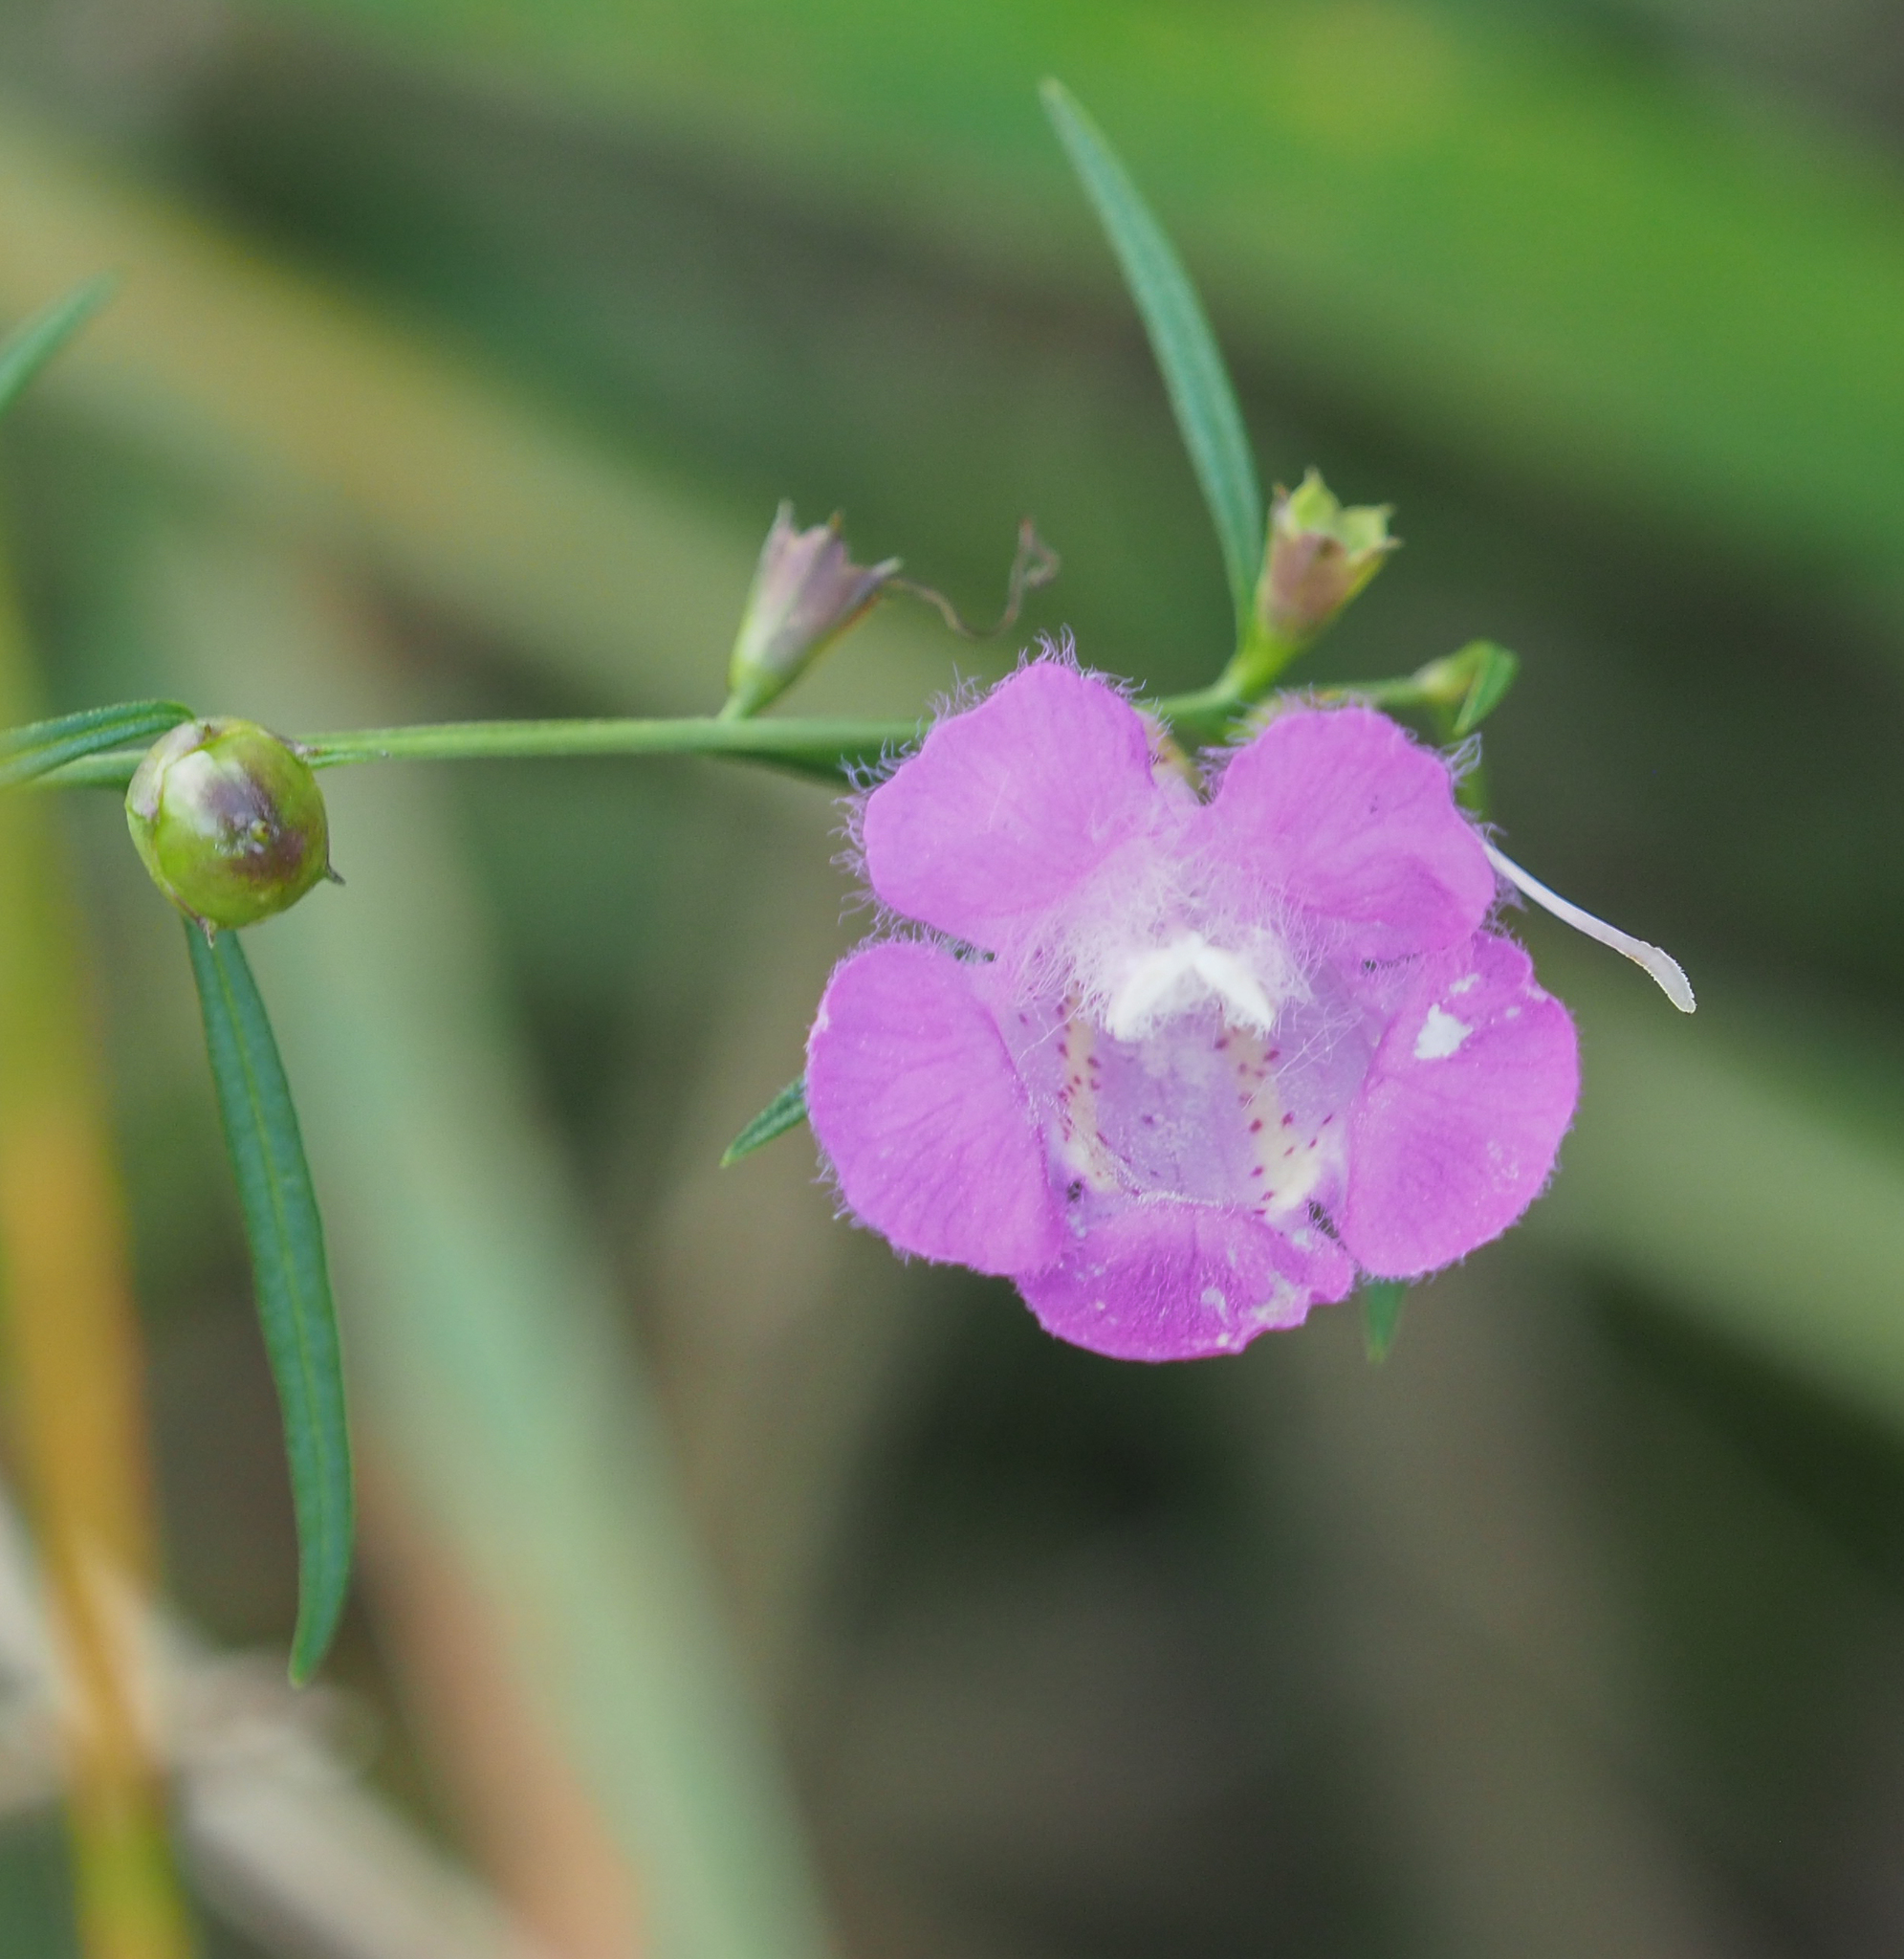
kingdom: Plantae
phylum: Tracheophyta
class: Magnoliopsida
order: Lamiales
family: Orobanchaceae
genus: Agalinis
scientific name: Agalinis purpurea
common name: Purple false foxglove
